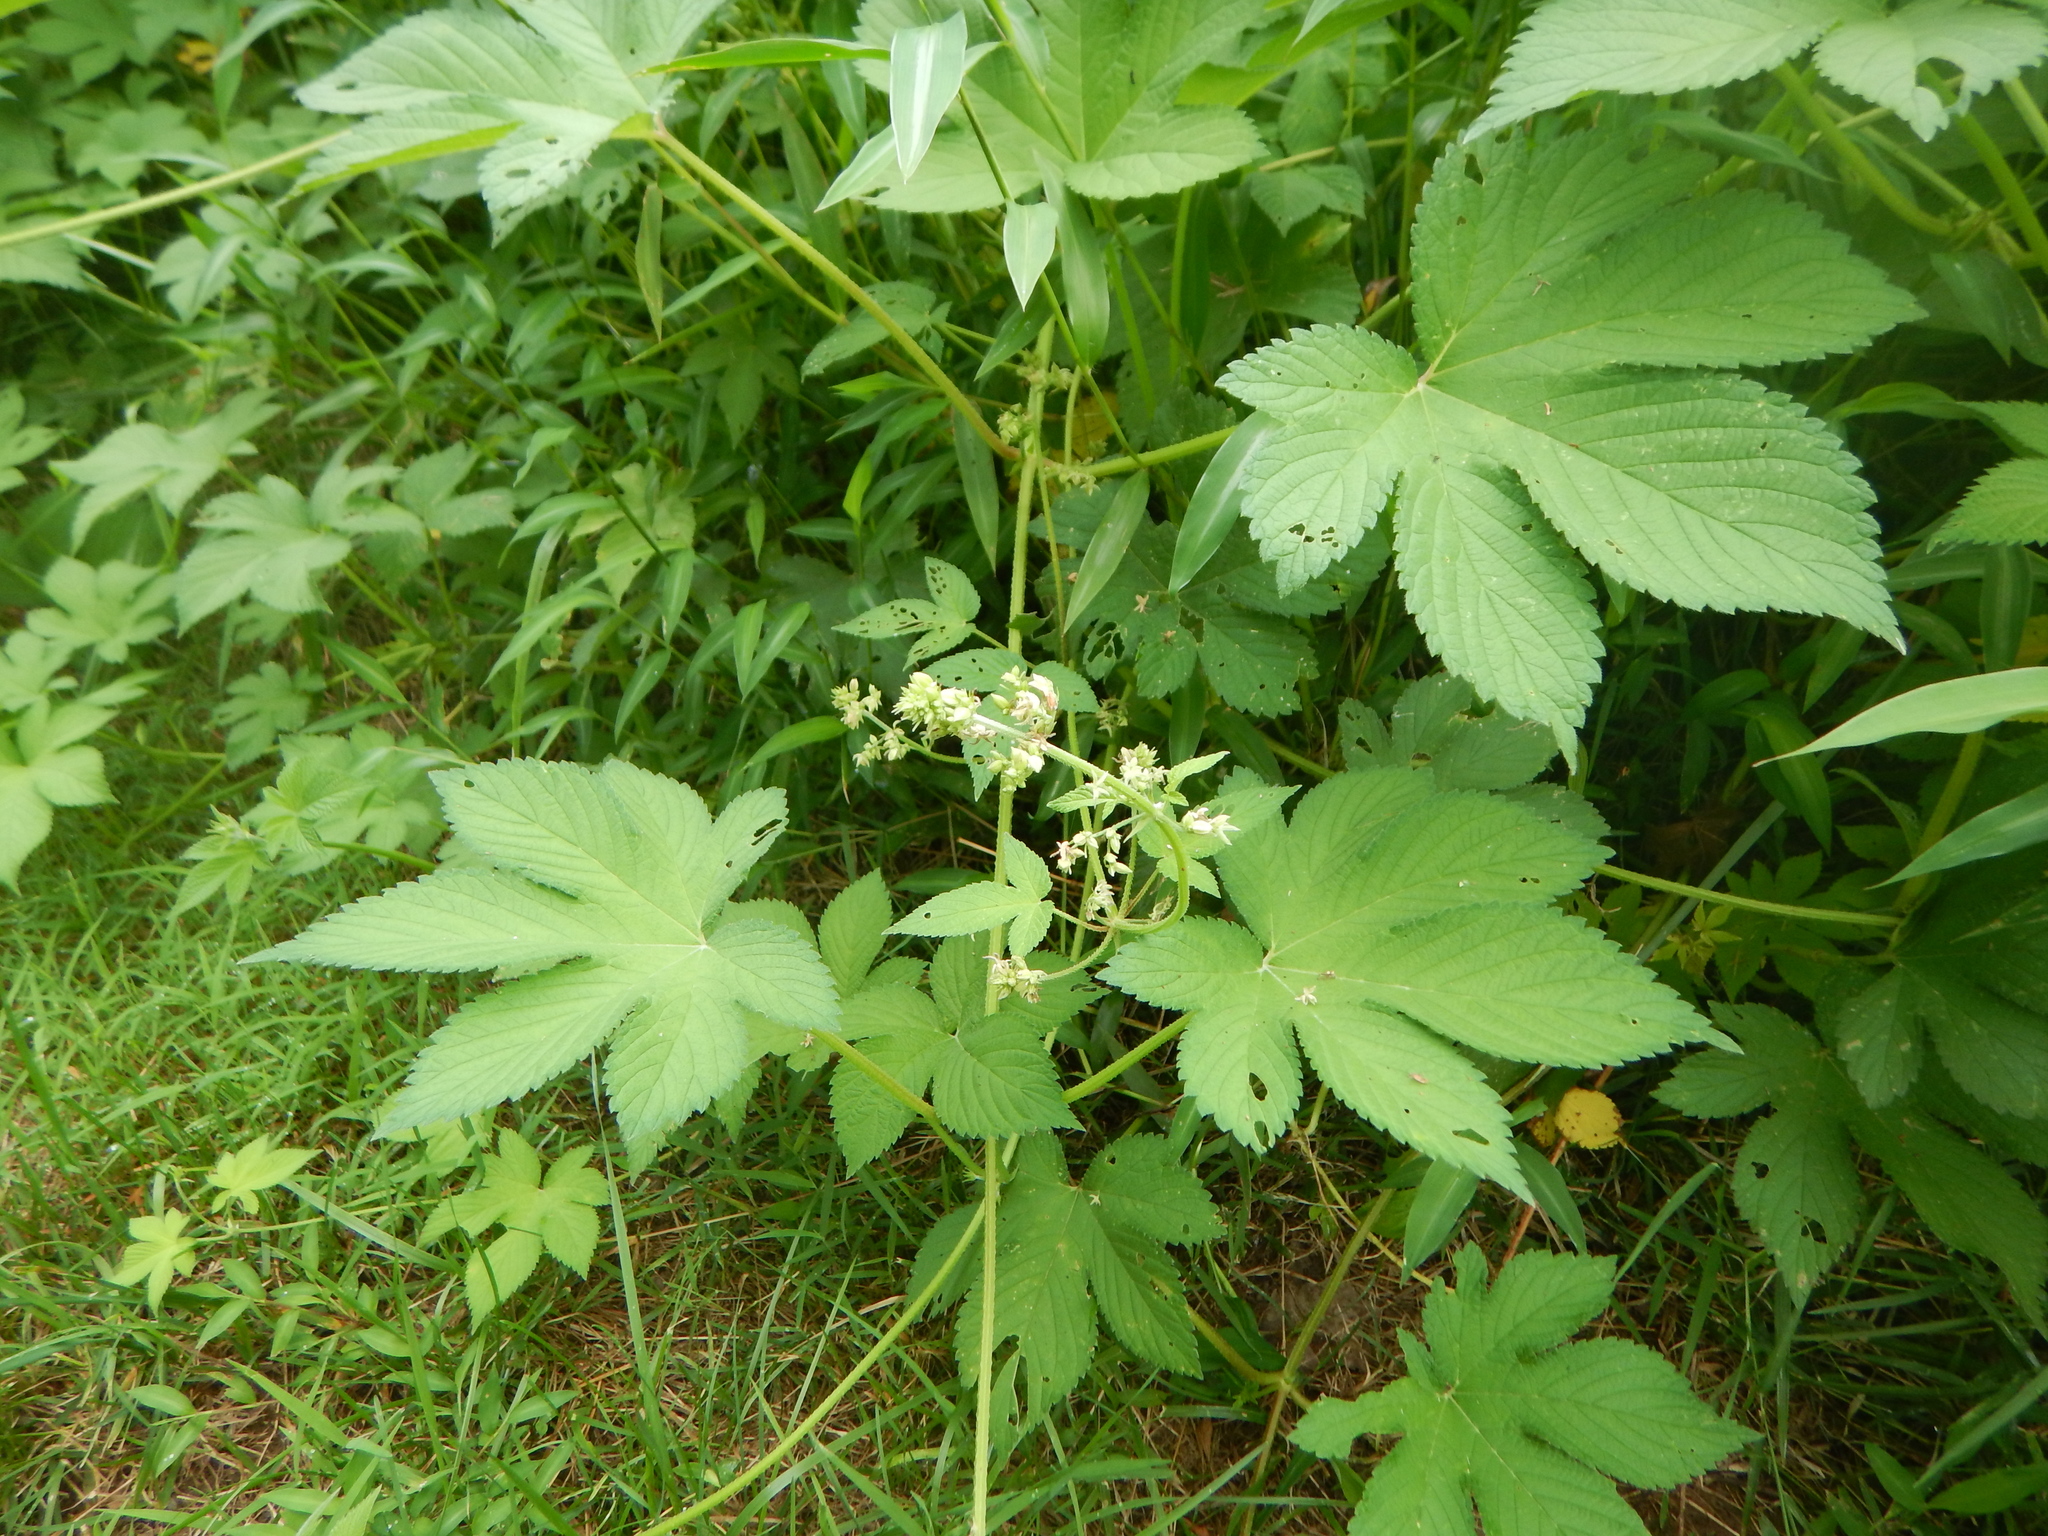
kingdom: Plantae
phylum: Tracheophyta
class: Magnoliopsida
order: Rosales
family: Cannabaceae
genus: Humulus
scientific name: Humulus scandens
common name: Japanese hop
